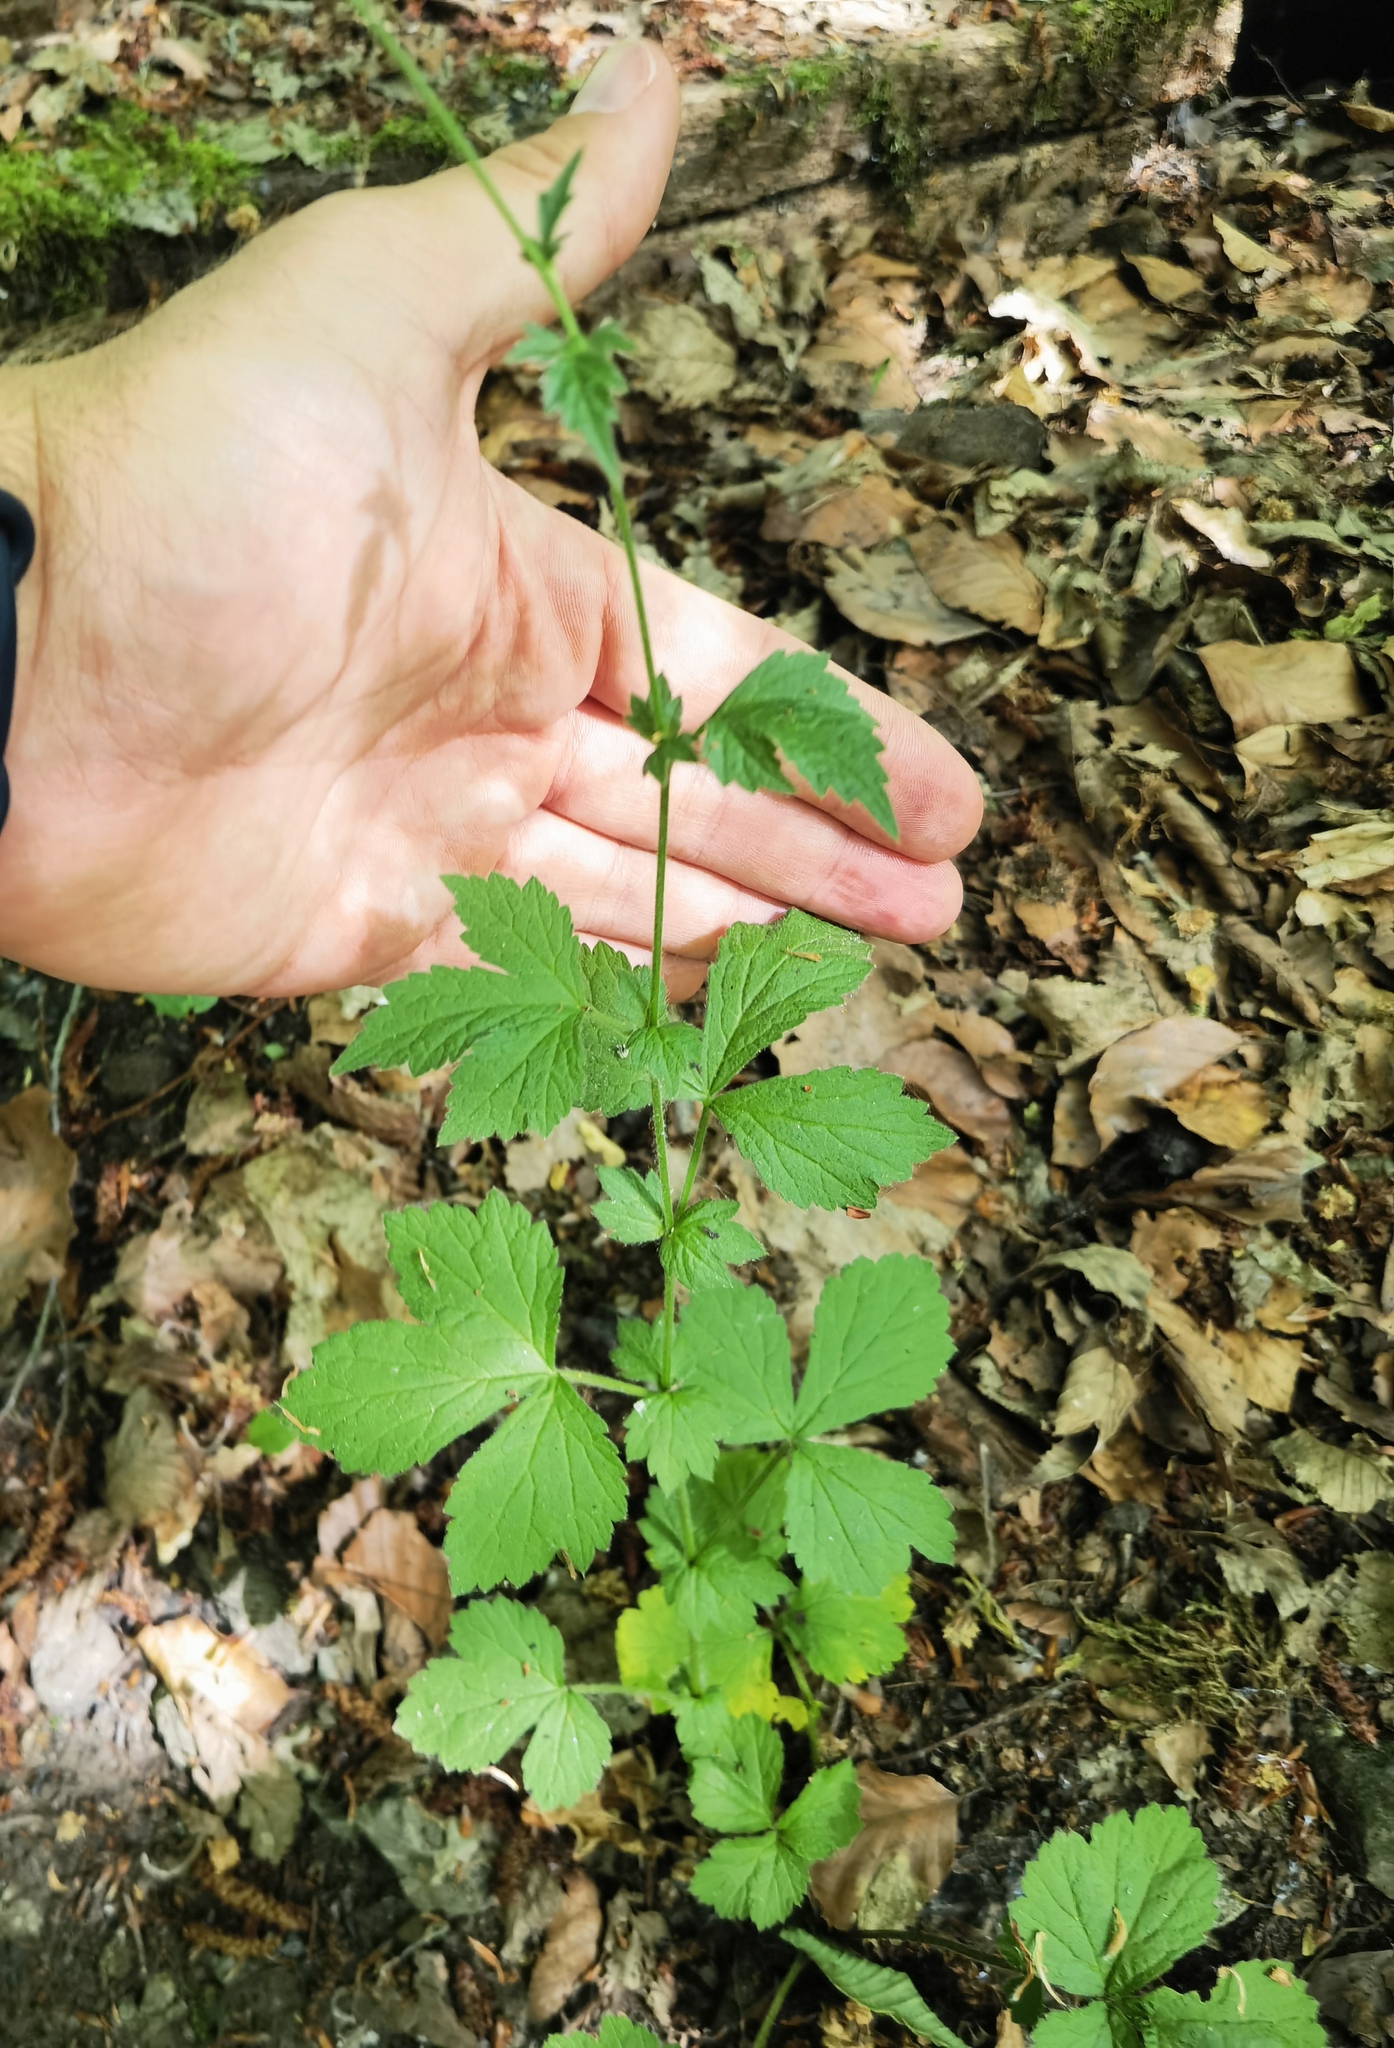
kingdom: Plantae
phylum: Tracheophyta
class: Magnoliopsida
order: Rosales
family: Rosaceae
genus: Geum
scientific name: Geum urbanum
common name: Wood avens
